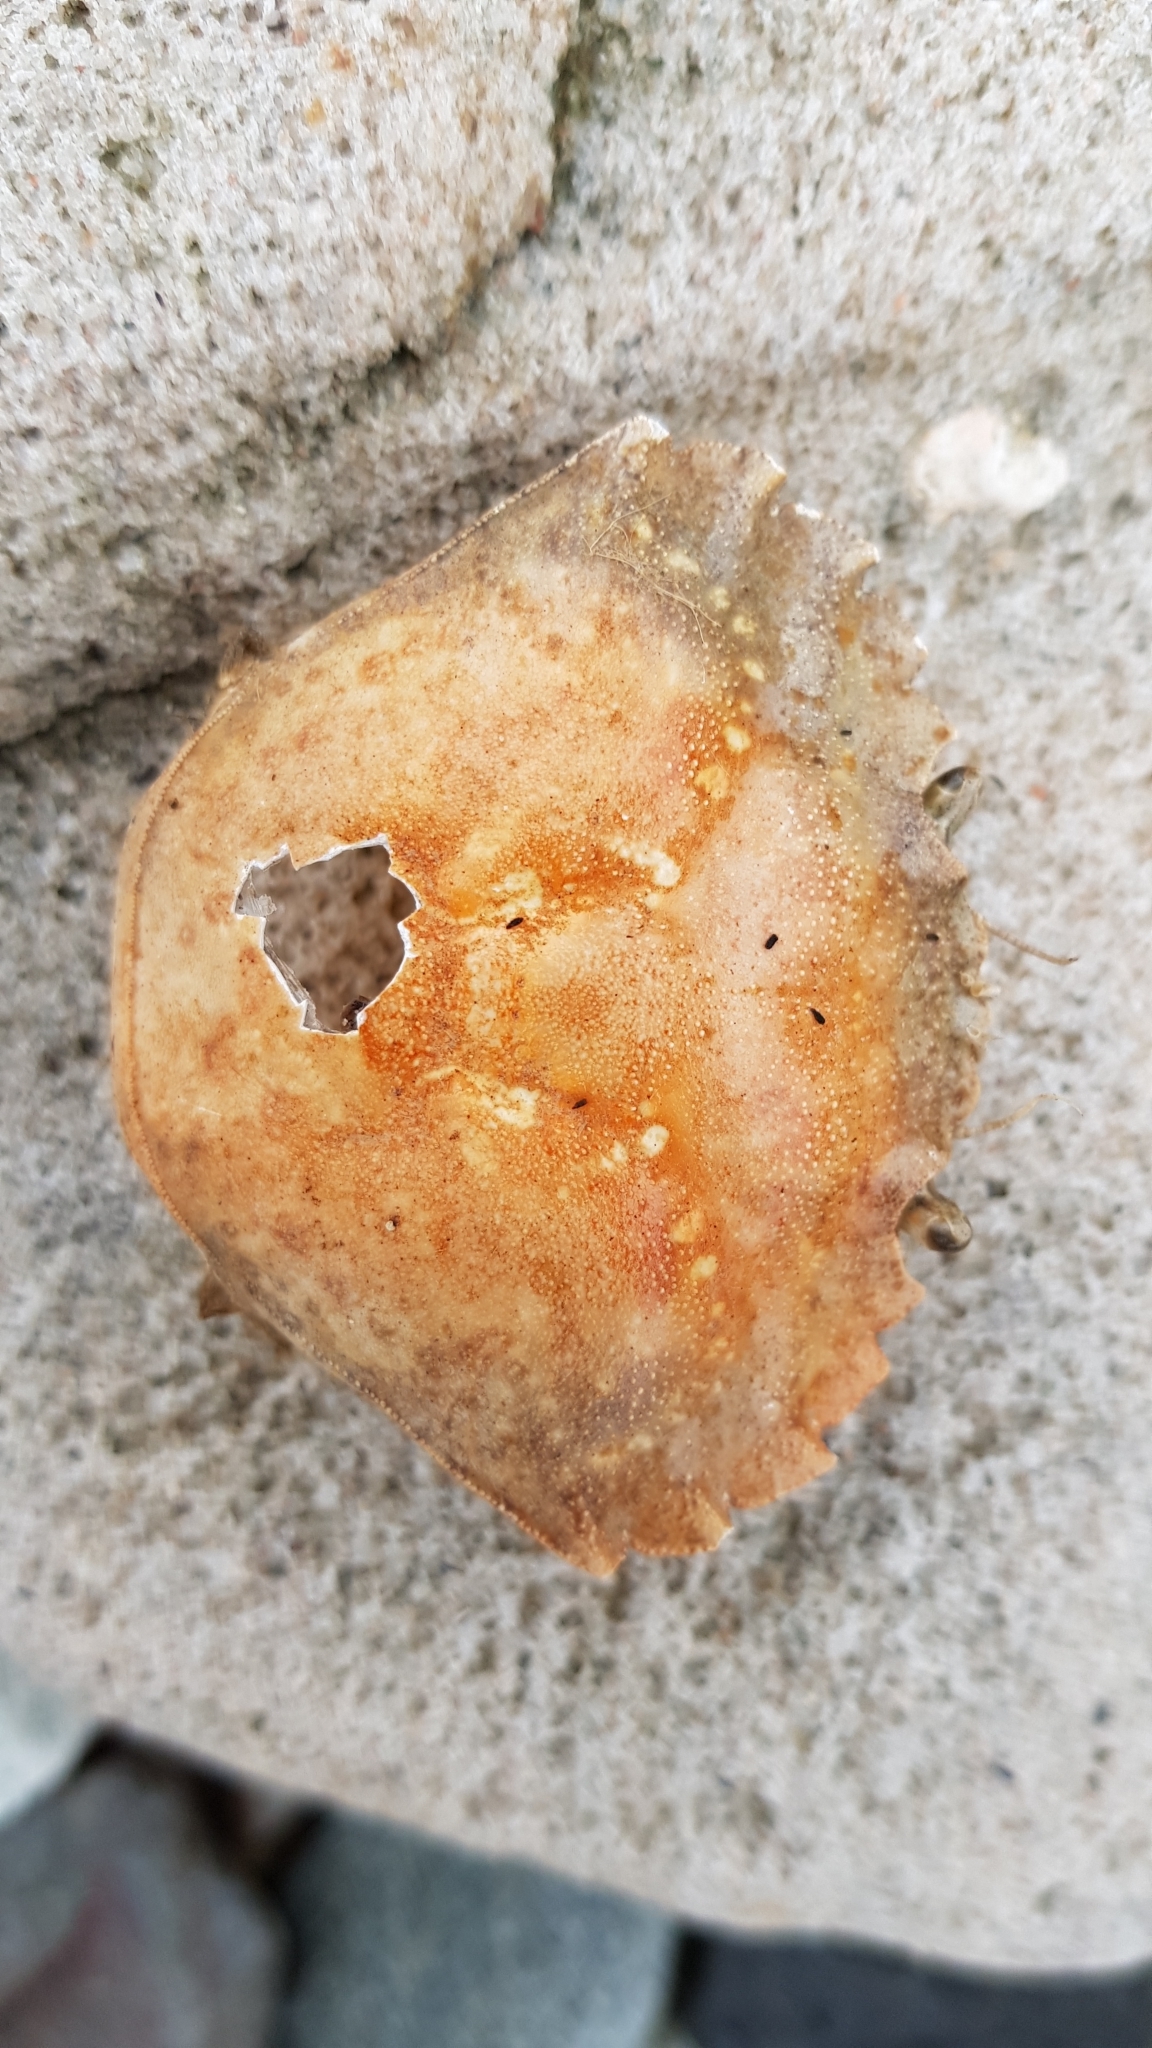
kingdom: Animalia
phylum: Arthropoda
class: Malacostraca
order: Decapoda
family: Carcinidae
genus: Carcinus
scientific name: Carcinus maenas
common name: European green crab
